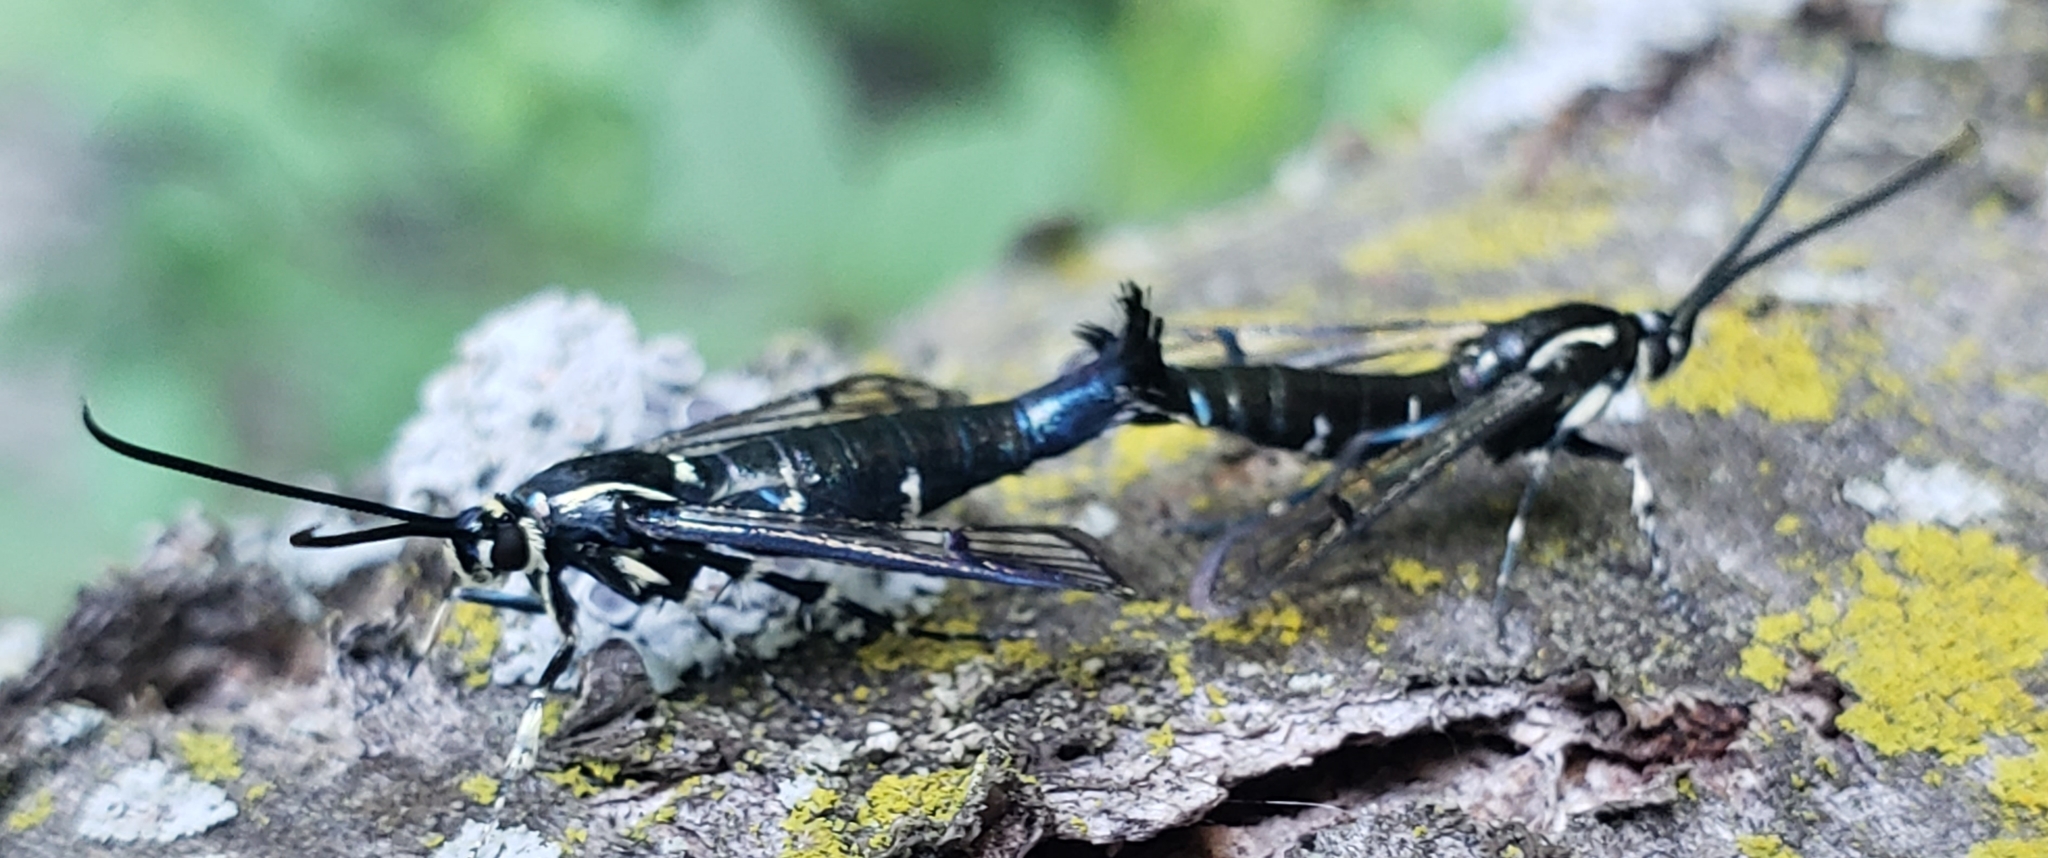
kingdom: Animalia
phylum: Arthropoda
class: Insecta
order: Lepidoptera
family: Sesiidae
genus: Synanthedon
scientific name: Synanthedon exitiosa
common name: Peachtree borer moth
